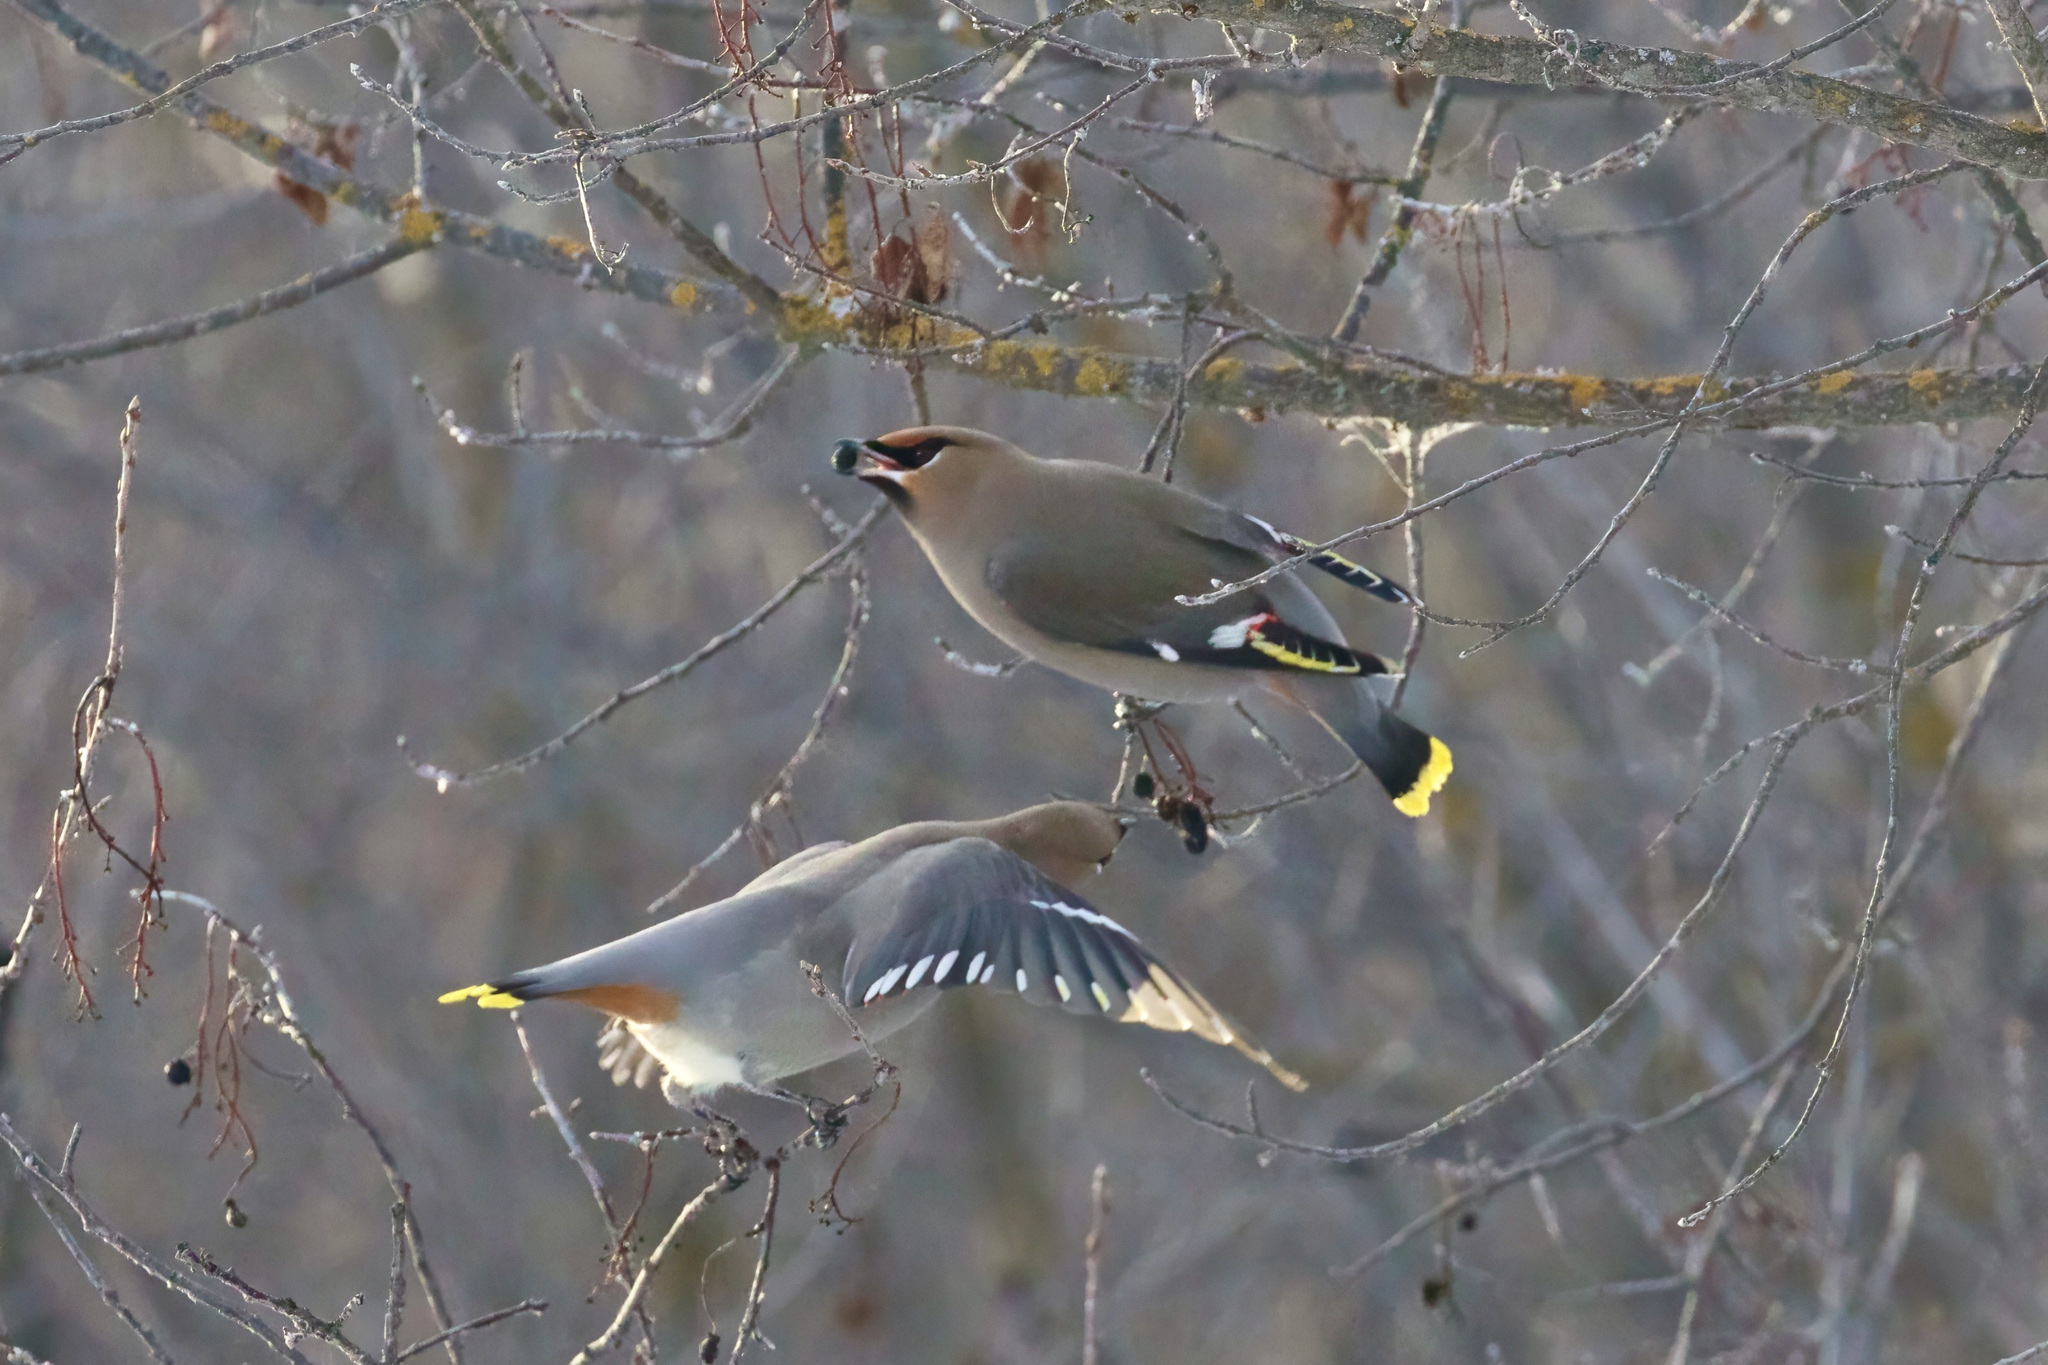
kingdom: Animalia
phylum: Chordata
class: Aves
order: Passeriformes
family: Bombycillidae
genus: Bombycilla
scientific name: Bombycilla garrulus
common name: Bohemian waxwing
